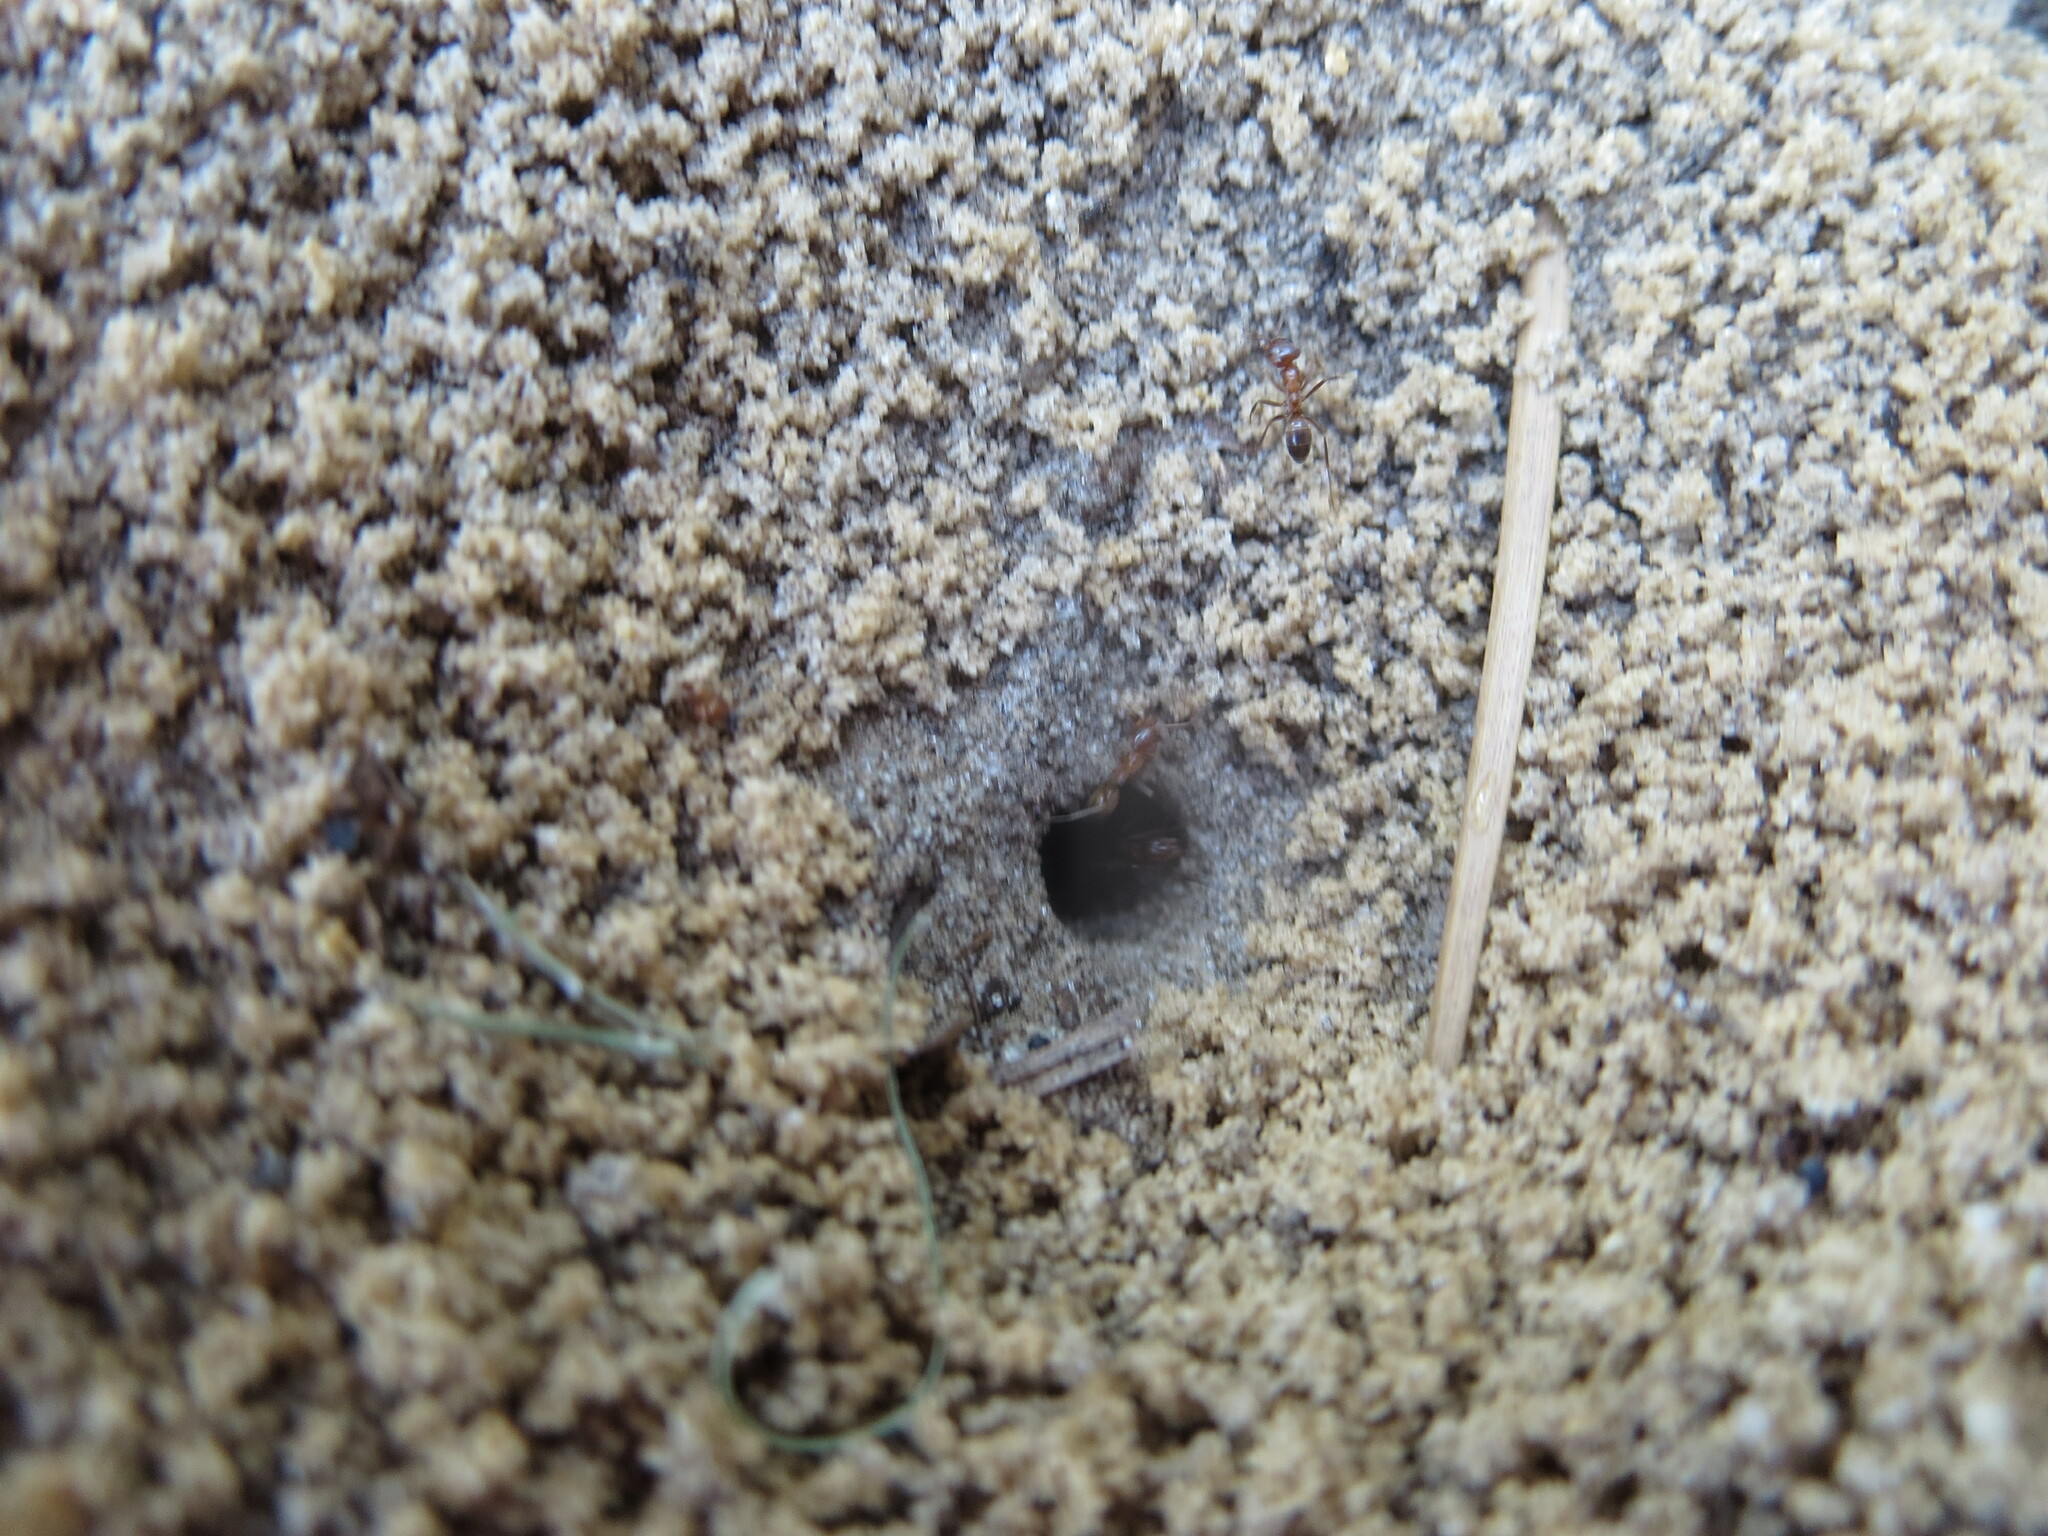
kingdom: Animalia
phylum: Arthropoda
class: Insecta
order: Hymenoptera
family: Formicidae
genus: Dorymyrmex
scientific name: Dorymyrmex bureni
